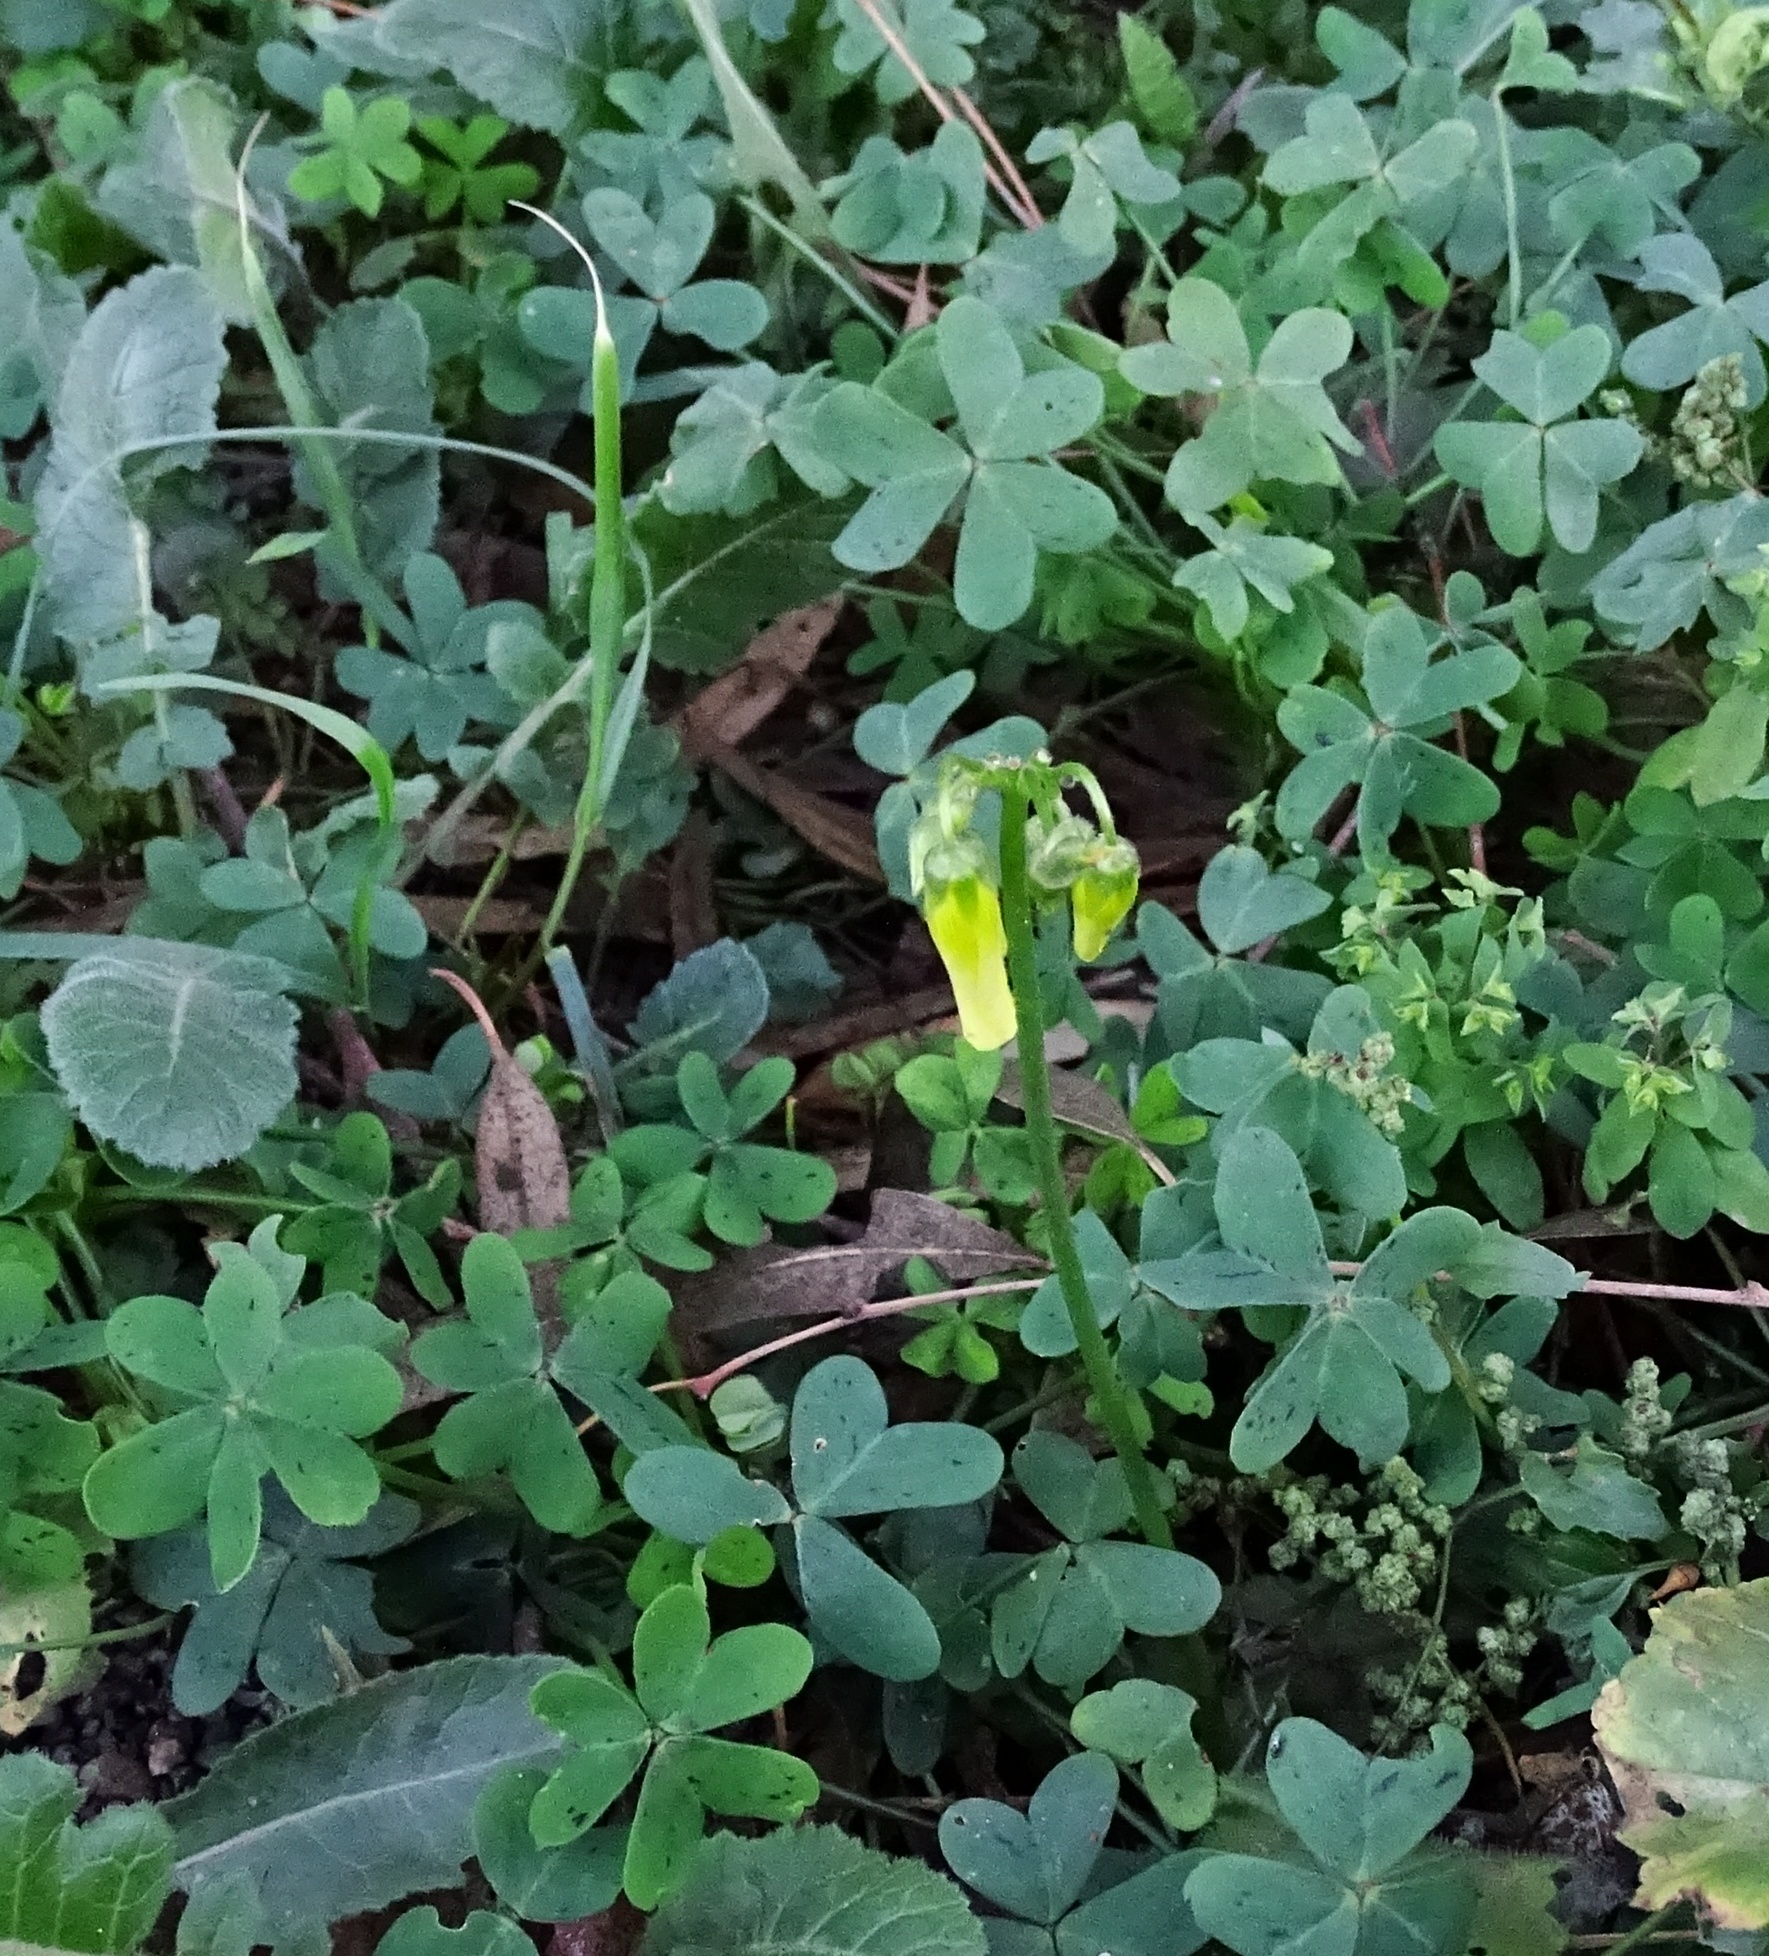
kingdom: Plantae
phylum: Tracheophyta
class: Magnoliopsida
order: Oxalidales
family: Oxalidaceae
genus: Oxalis
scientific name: Oxalis pes-caprae
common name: Bermuda-buttercup
